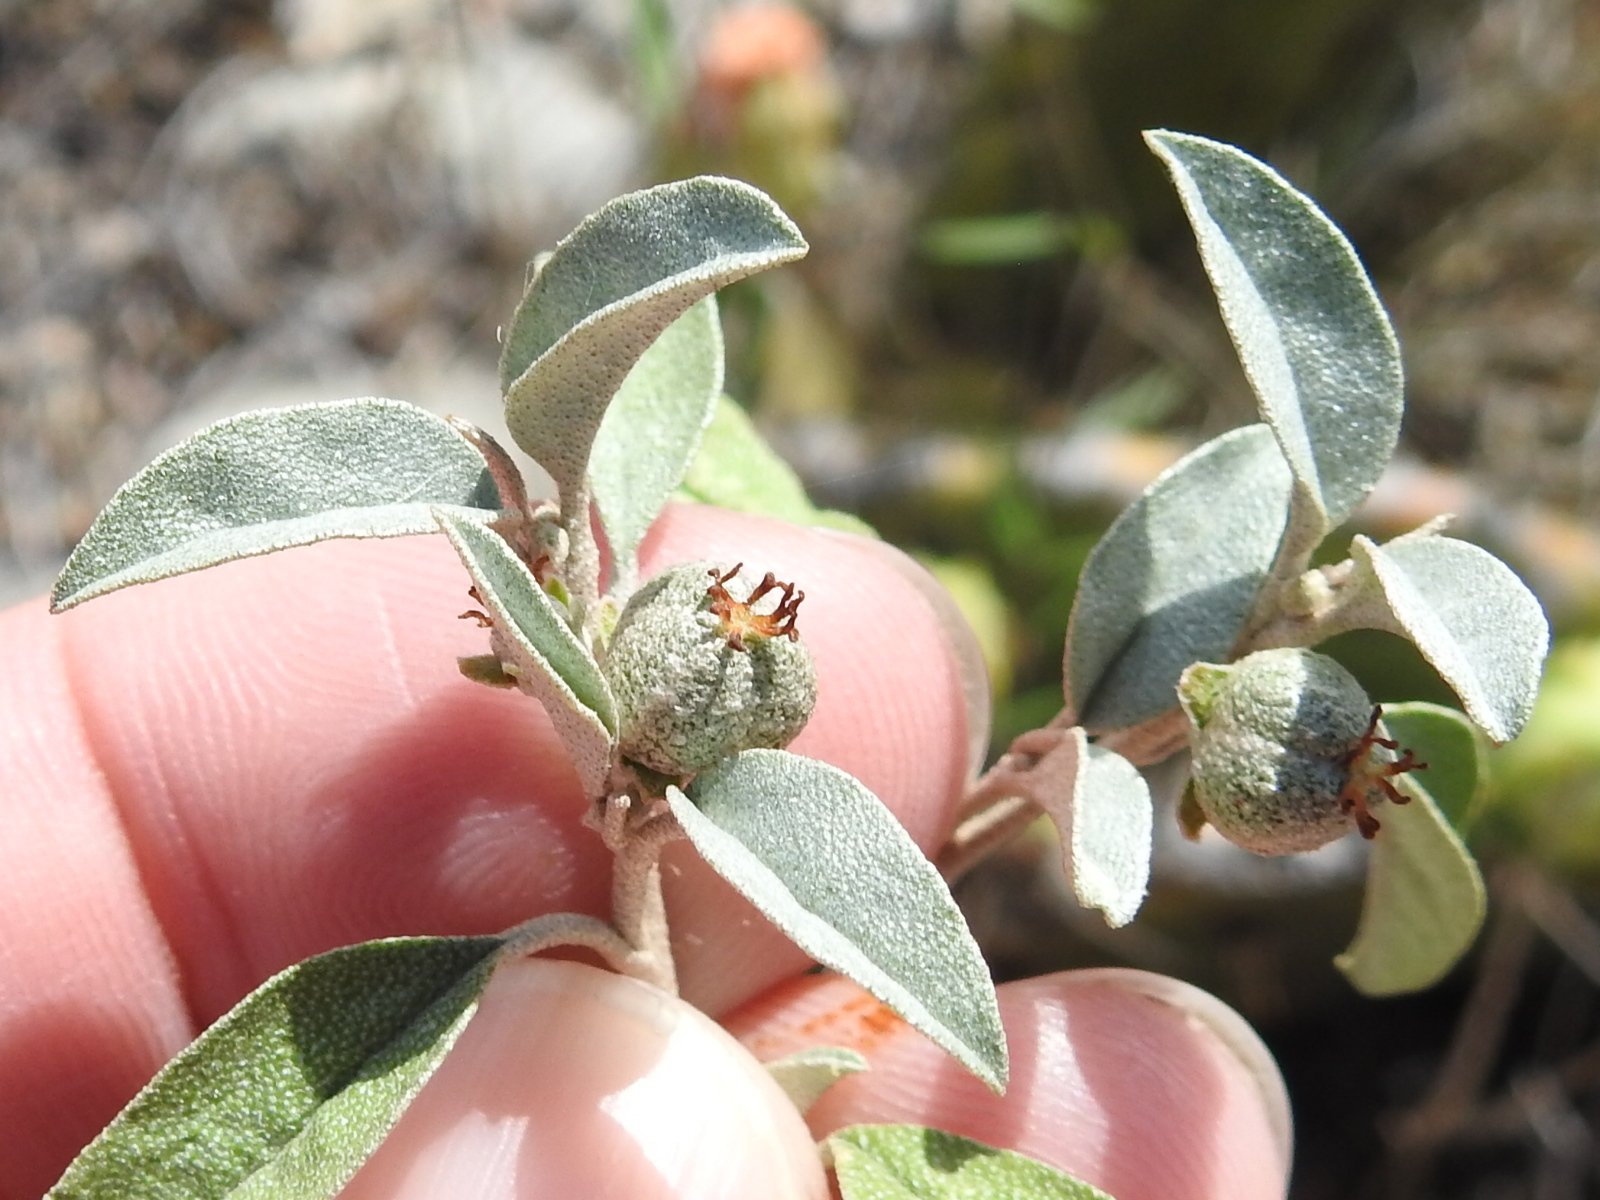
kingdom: Plantae
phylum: Tracheophyta
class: Magnoliopsida
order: Malpighiales
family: Euphorbiaceae
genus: Croton
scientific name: Croton dioicus
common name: Grassland croton
